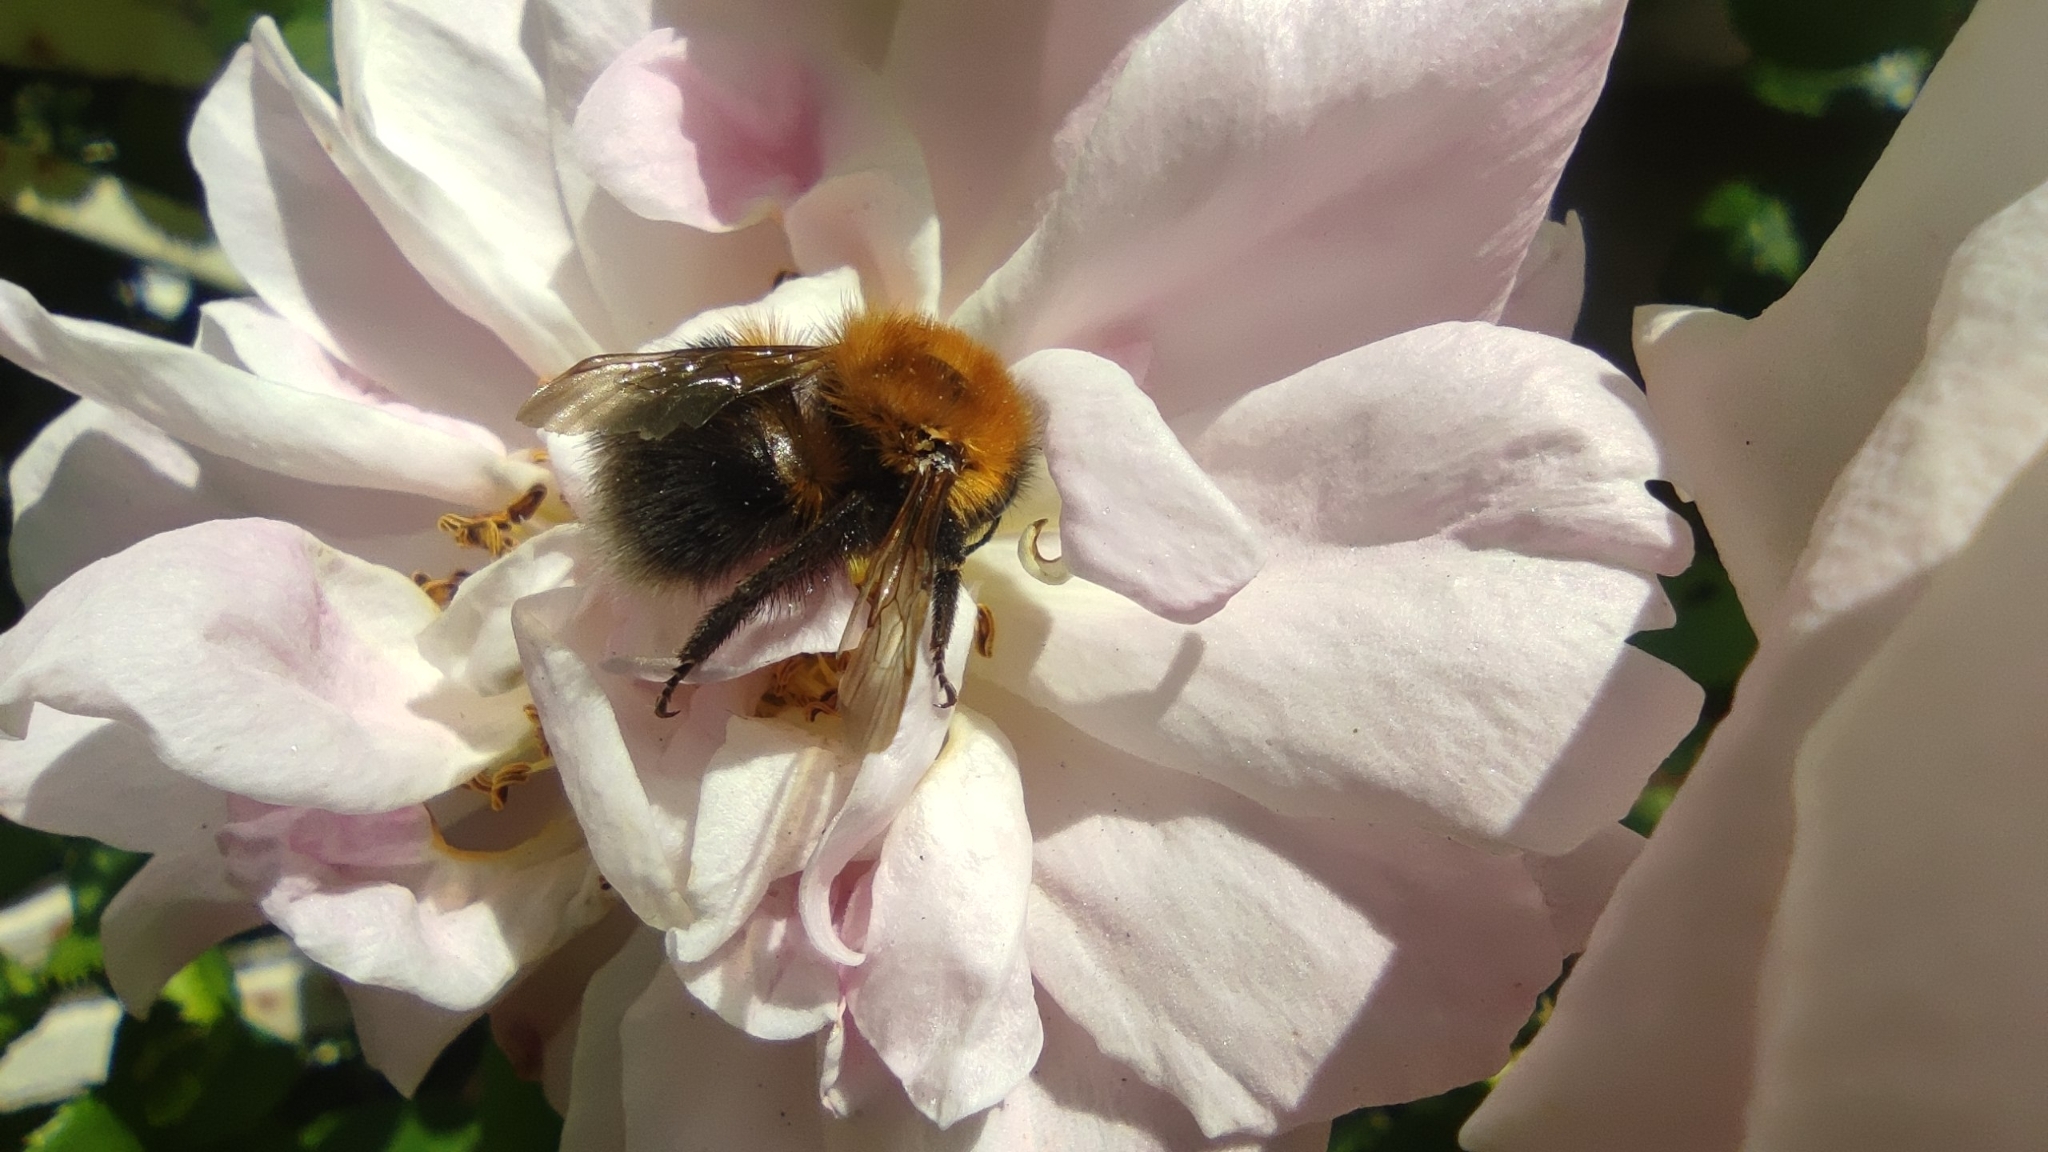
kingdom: Animalia
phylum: Arthropoda
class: Insecta
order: Hymenoptera
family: Apidae
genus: Bombus
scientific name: Bombus hypnorum
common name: New garden bumblebee
